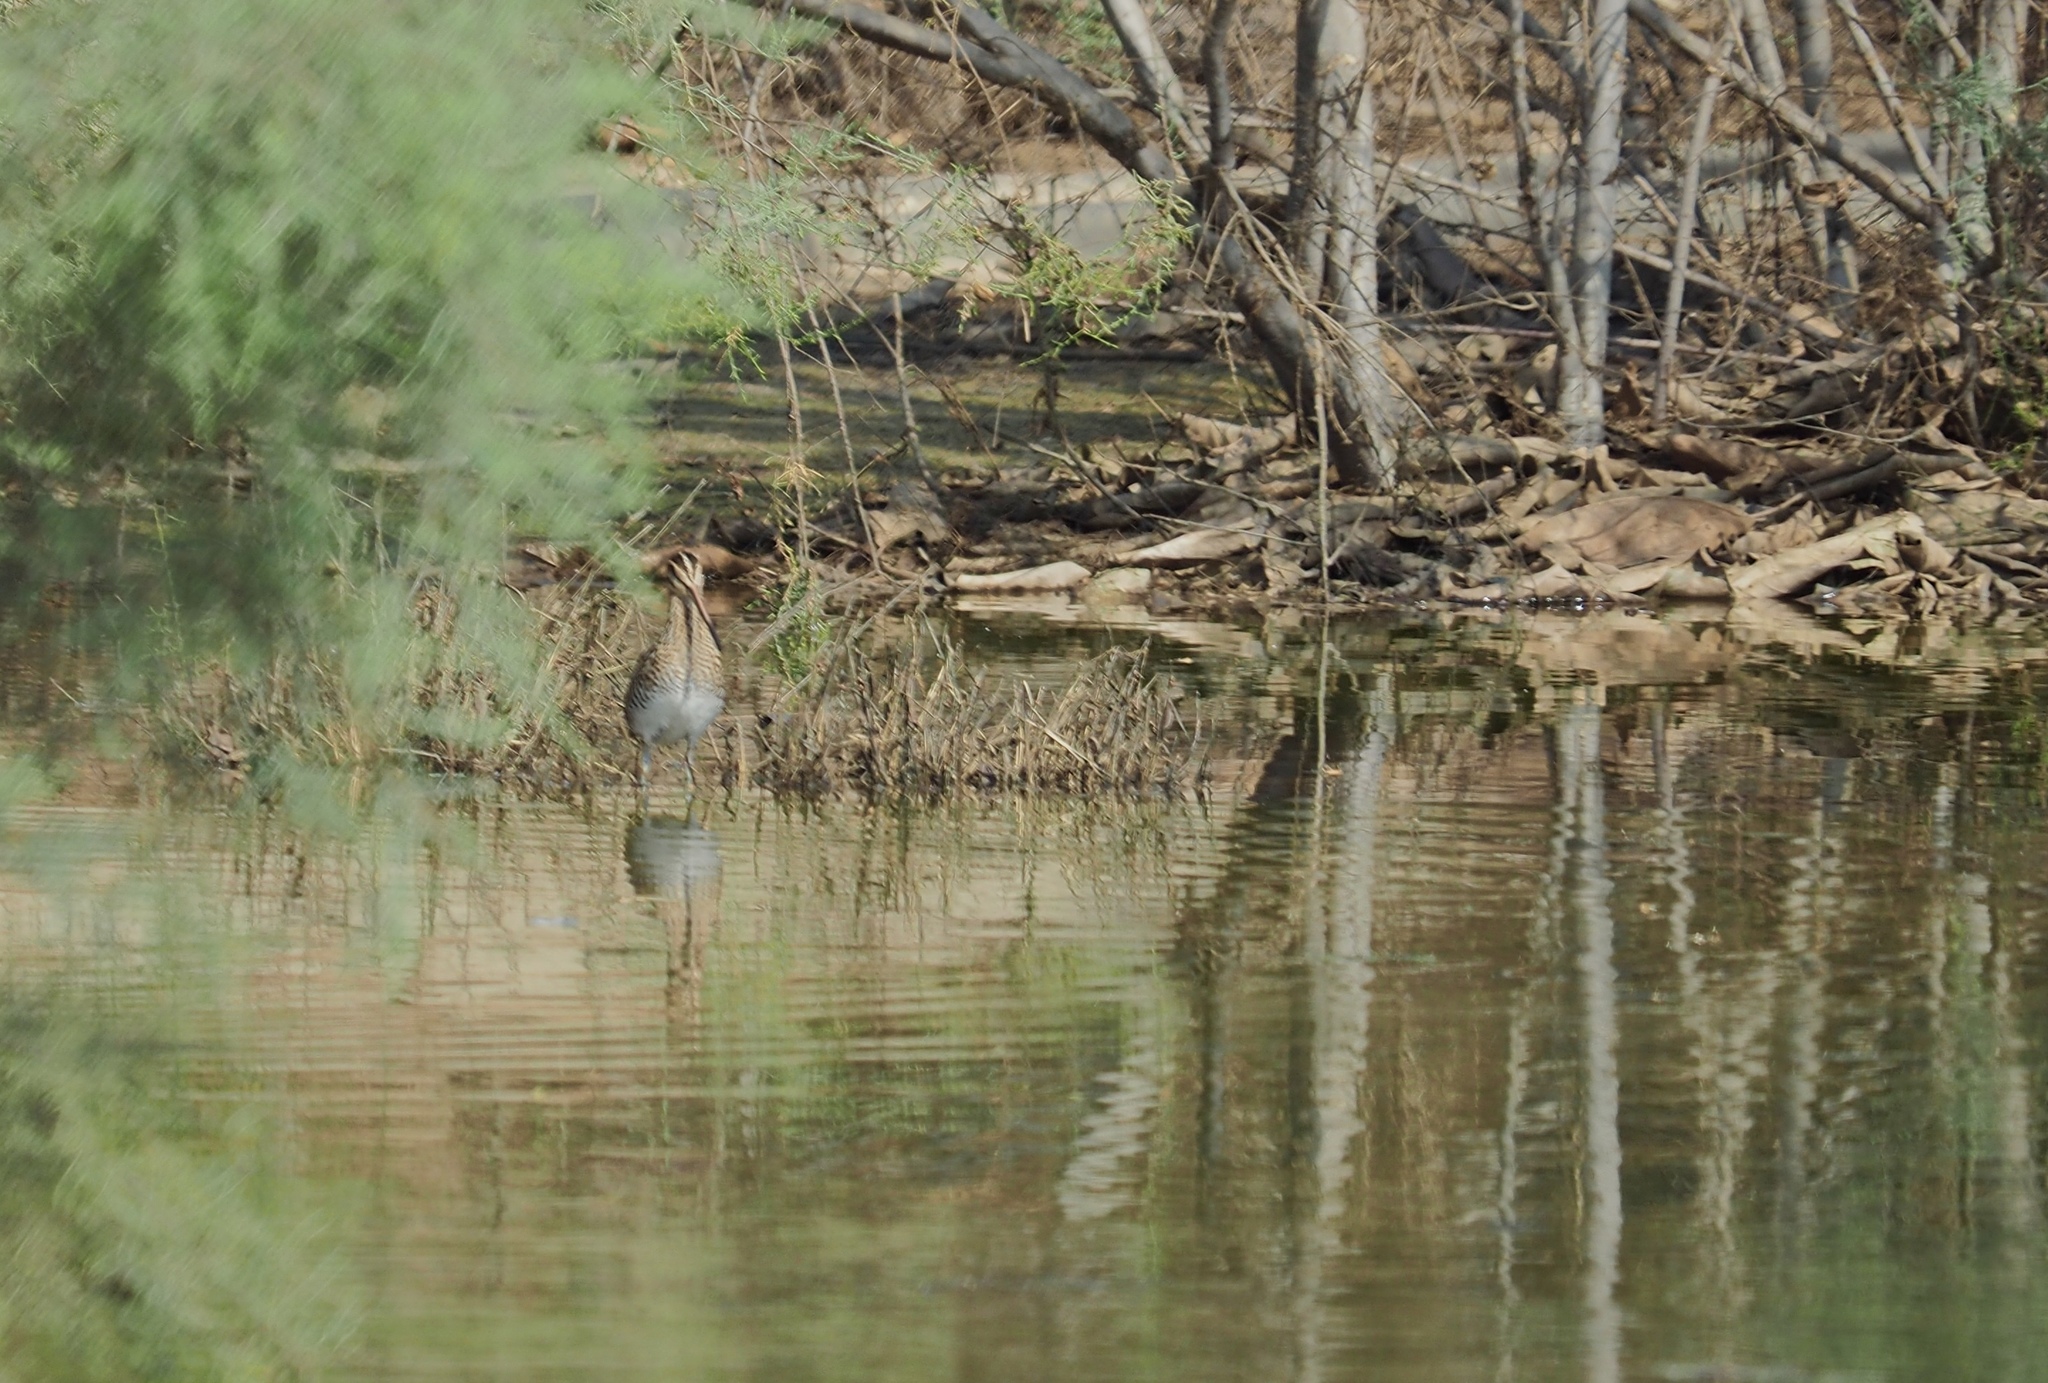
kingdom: Animalia
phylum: Chordata
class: Aves
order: Charadriiformes
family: Scolopacidae
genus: Gallinago
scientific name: Gallinago gallinago
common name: Common snipe
